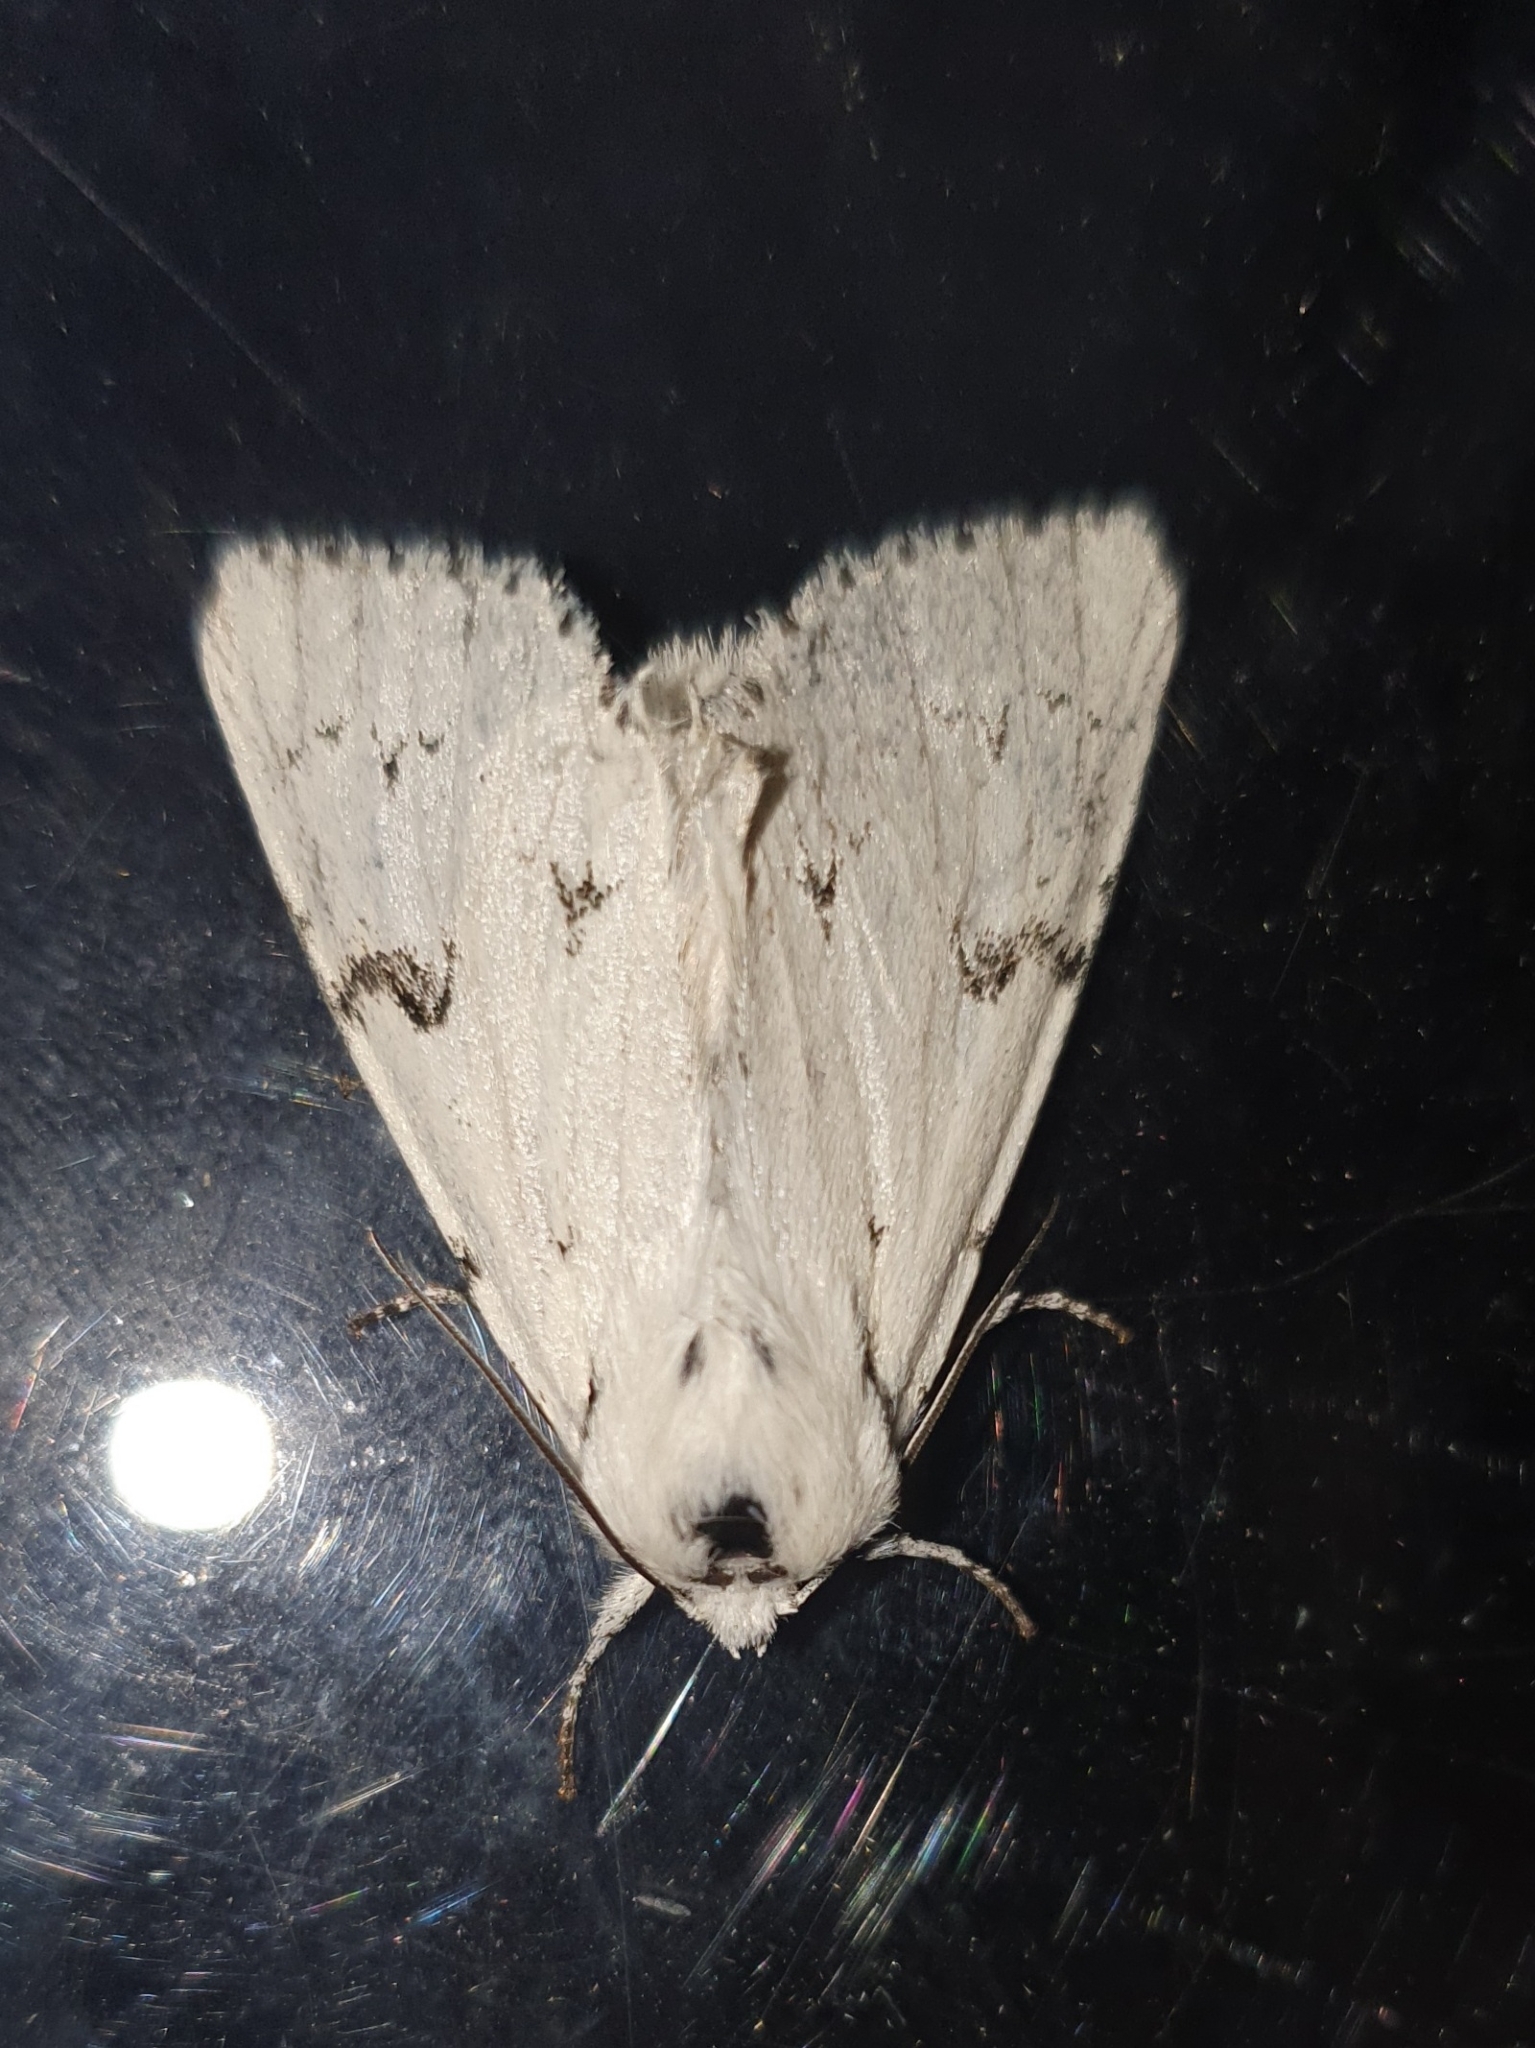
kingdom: Animalia
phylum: Arthropoda
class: Insecta
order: Lepidoptera
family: Noctuidae
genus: Acronicta
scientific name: Acronicta leporina
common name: Miller
